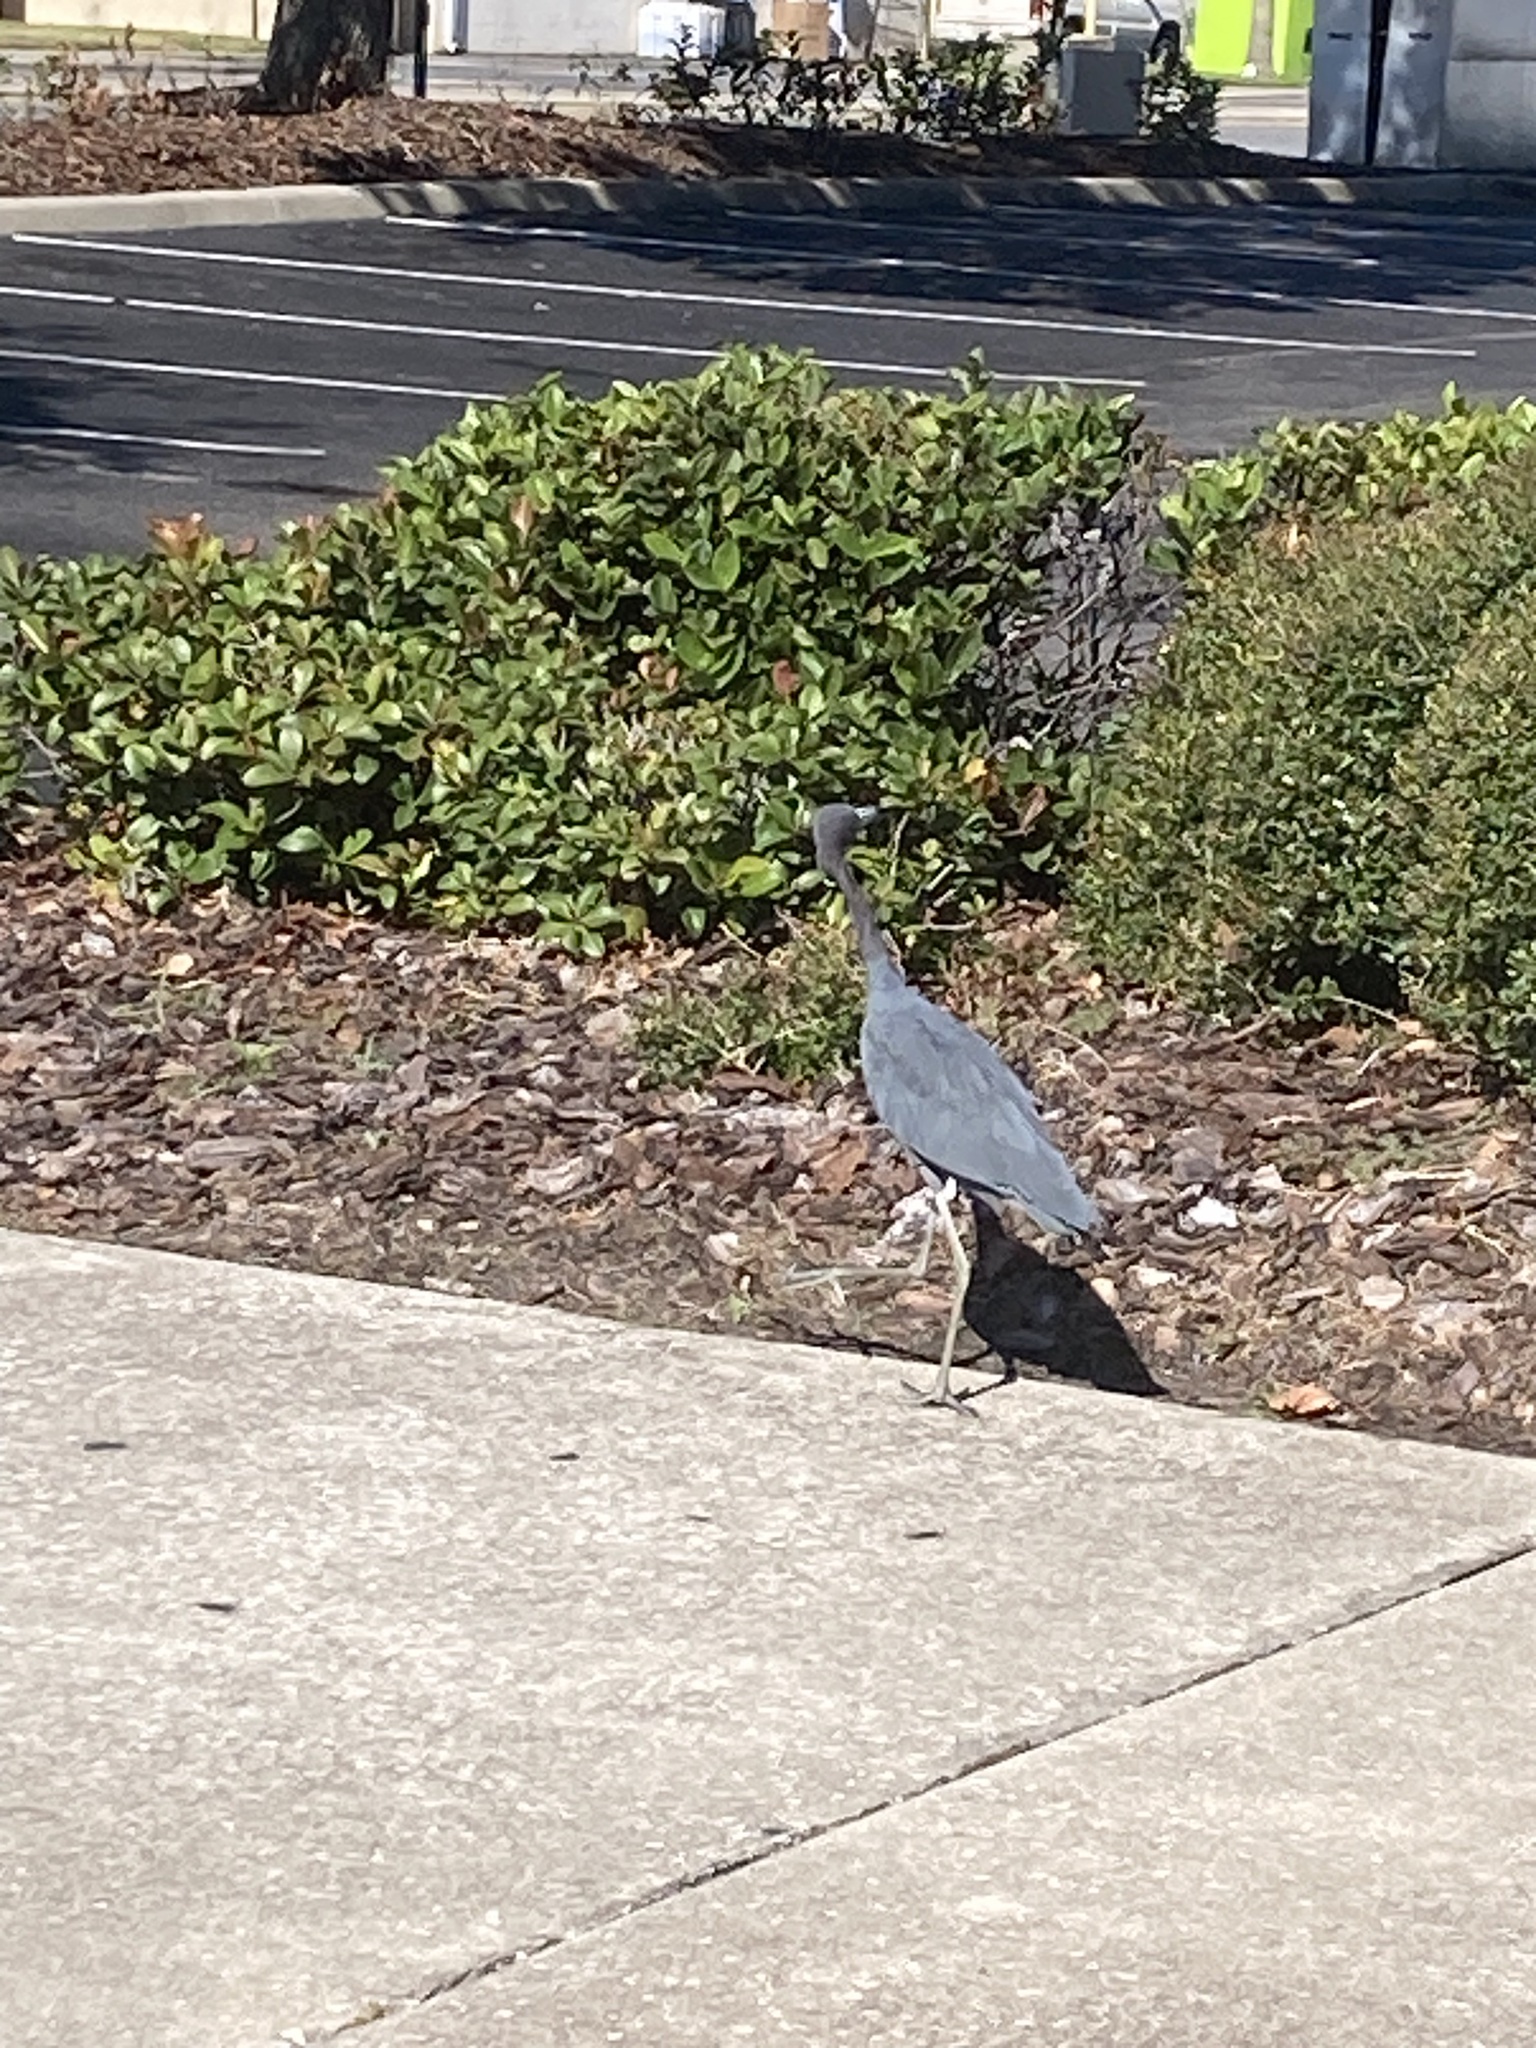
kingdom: Animalia
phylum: Chordata
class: Aves
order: Pelecaniformes
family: Ardeidae
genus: Egretta
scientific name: Egretta caerulea
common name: Little blue heron
